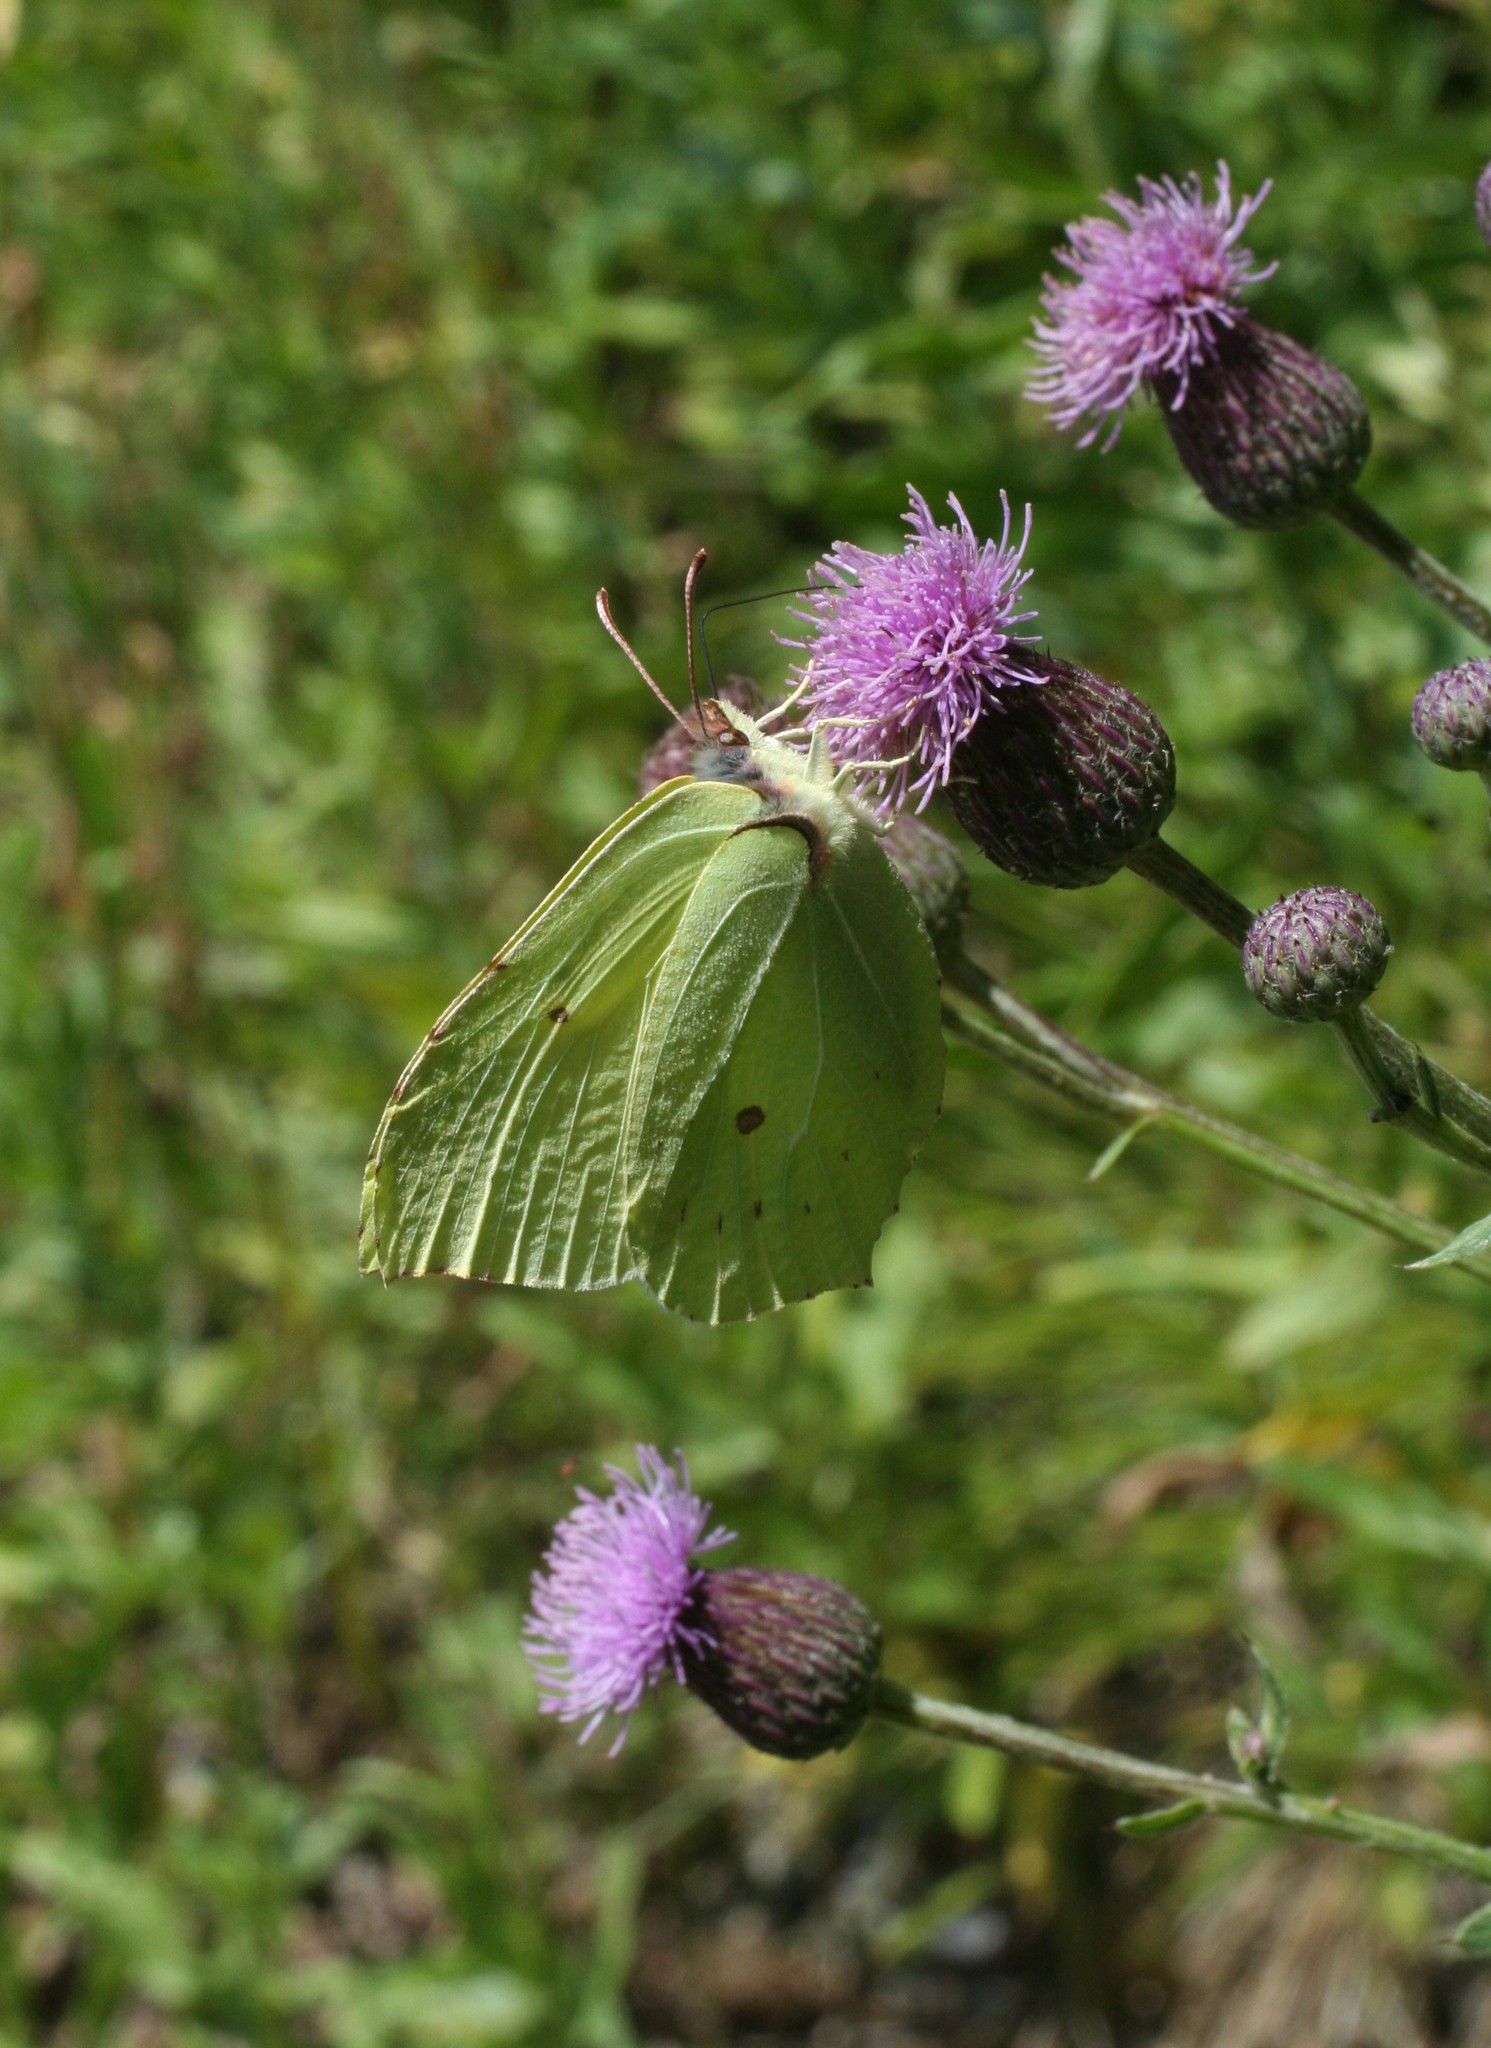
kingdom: Plantae
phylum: Tracheophyta
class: Magnoliopsida
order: Asterales
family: Asteraceae
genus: Cirsium
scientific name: Cirsium arvense
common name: Creeping thistle
